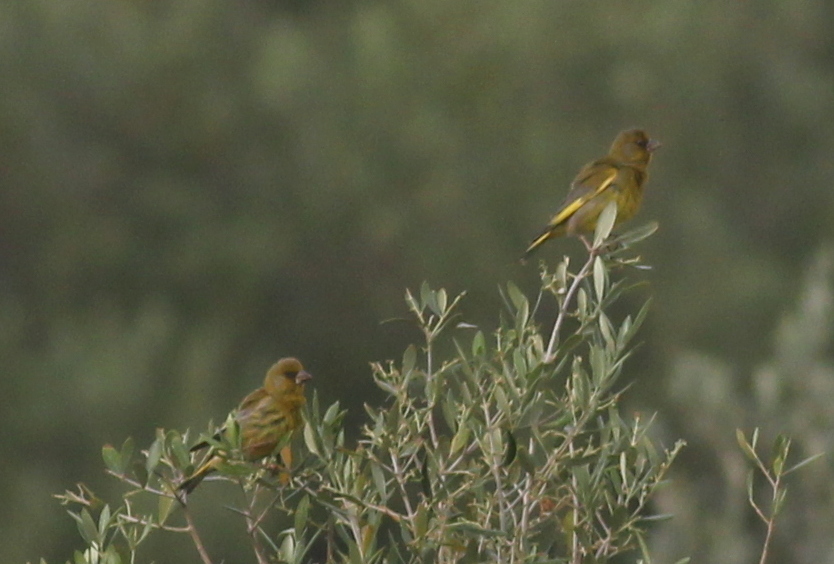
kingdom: Plantae
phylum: Tracheophyta
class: Liliopsida
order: Poales
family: Poaceae
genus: Chloris
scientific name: Chloris chloris
